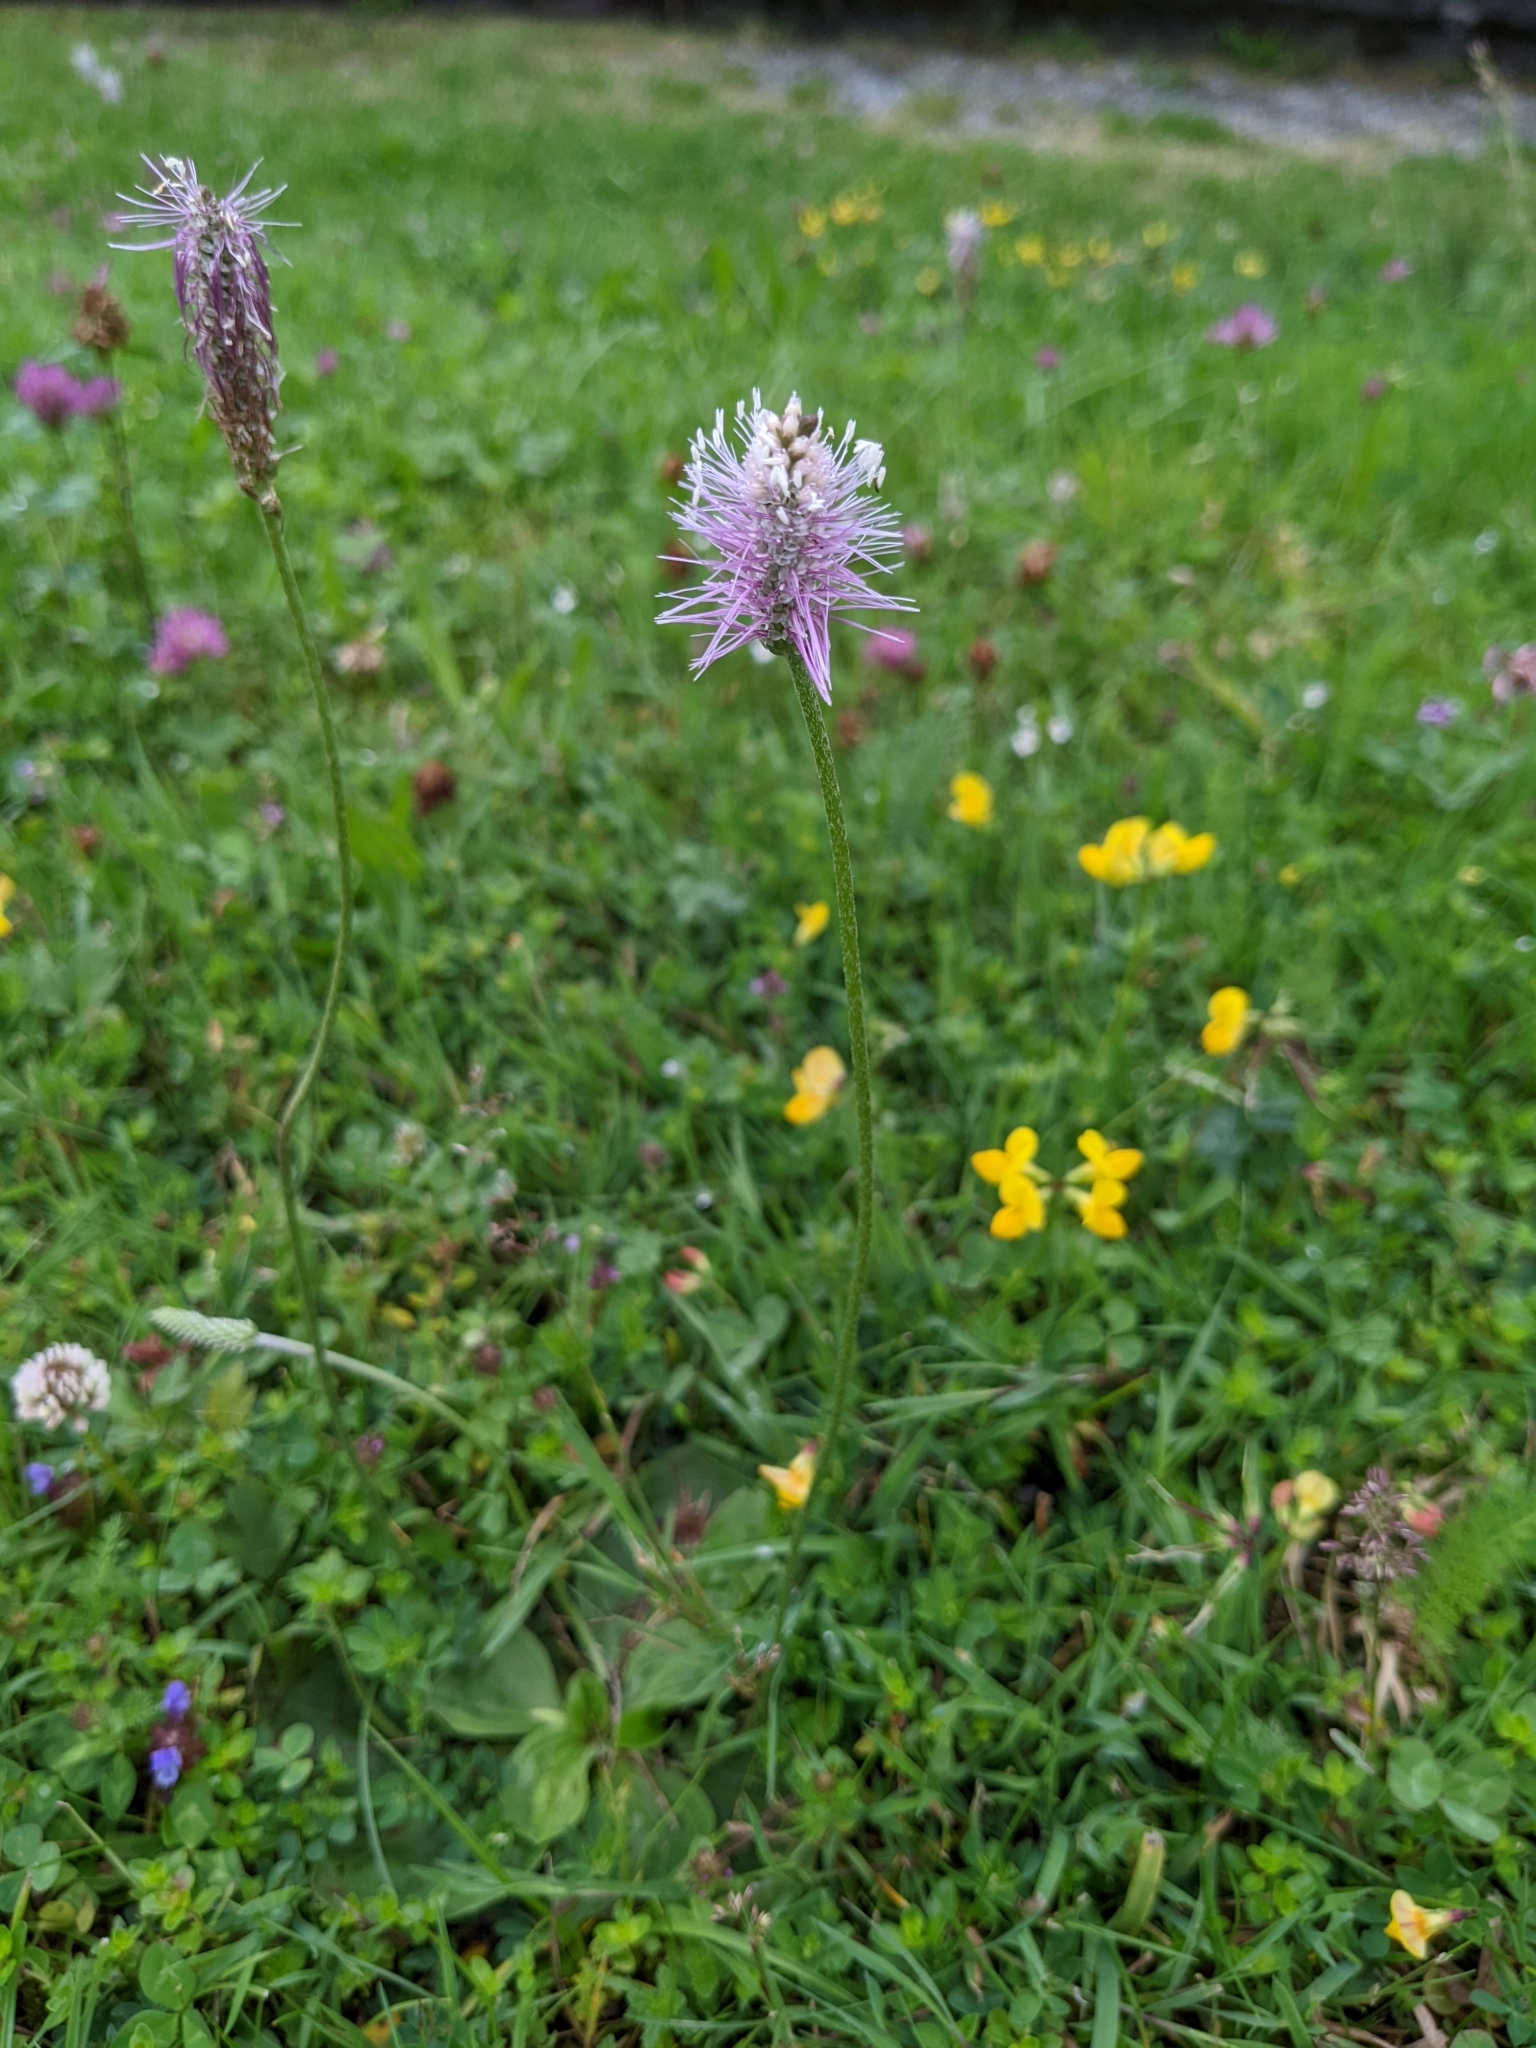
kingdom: Plantae
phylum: Tracheophyta
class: Magnoliopsida
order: Lamiales
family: Plantaginaceae
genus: Plantago
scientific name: Plantago media
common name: Hoary plantain
